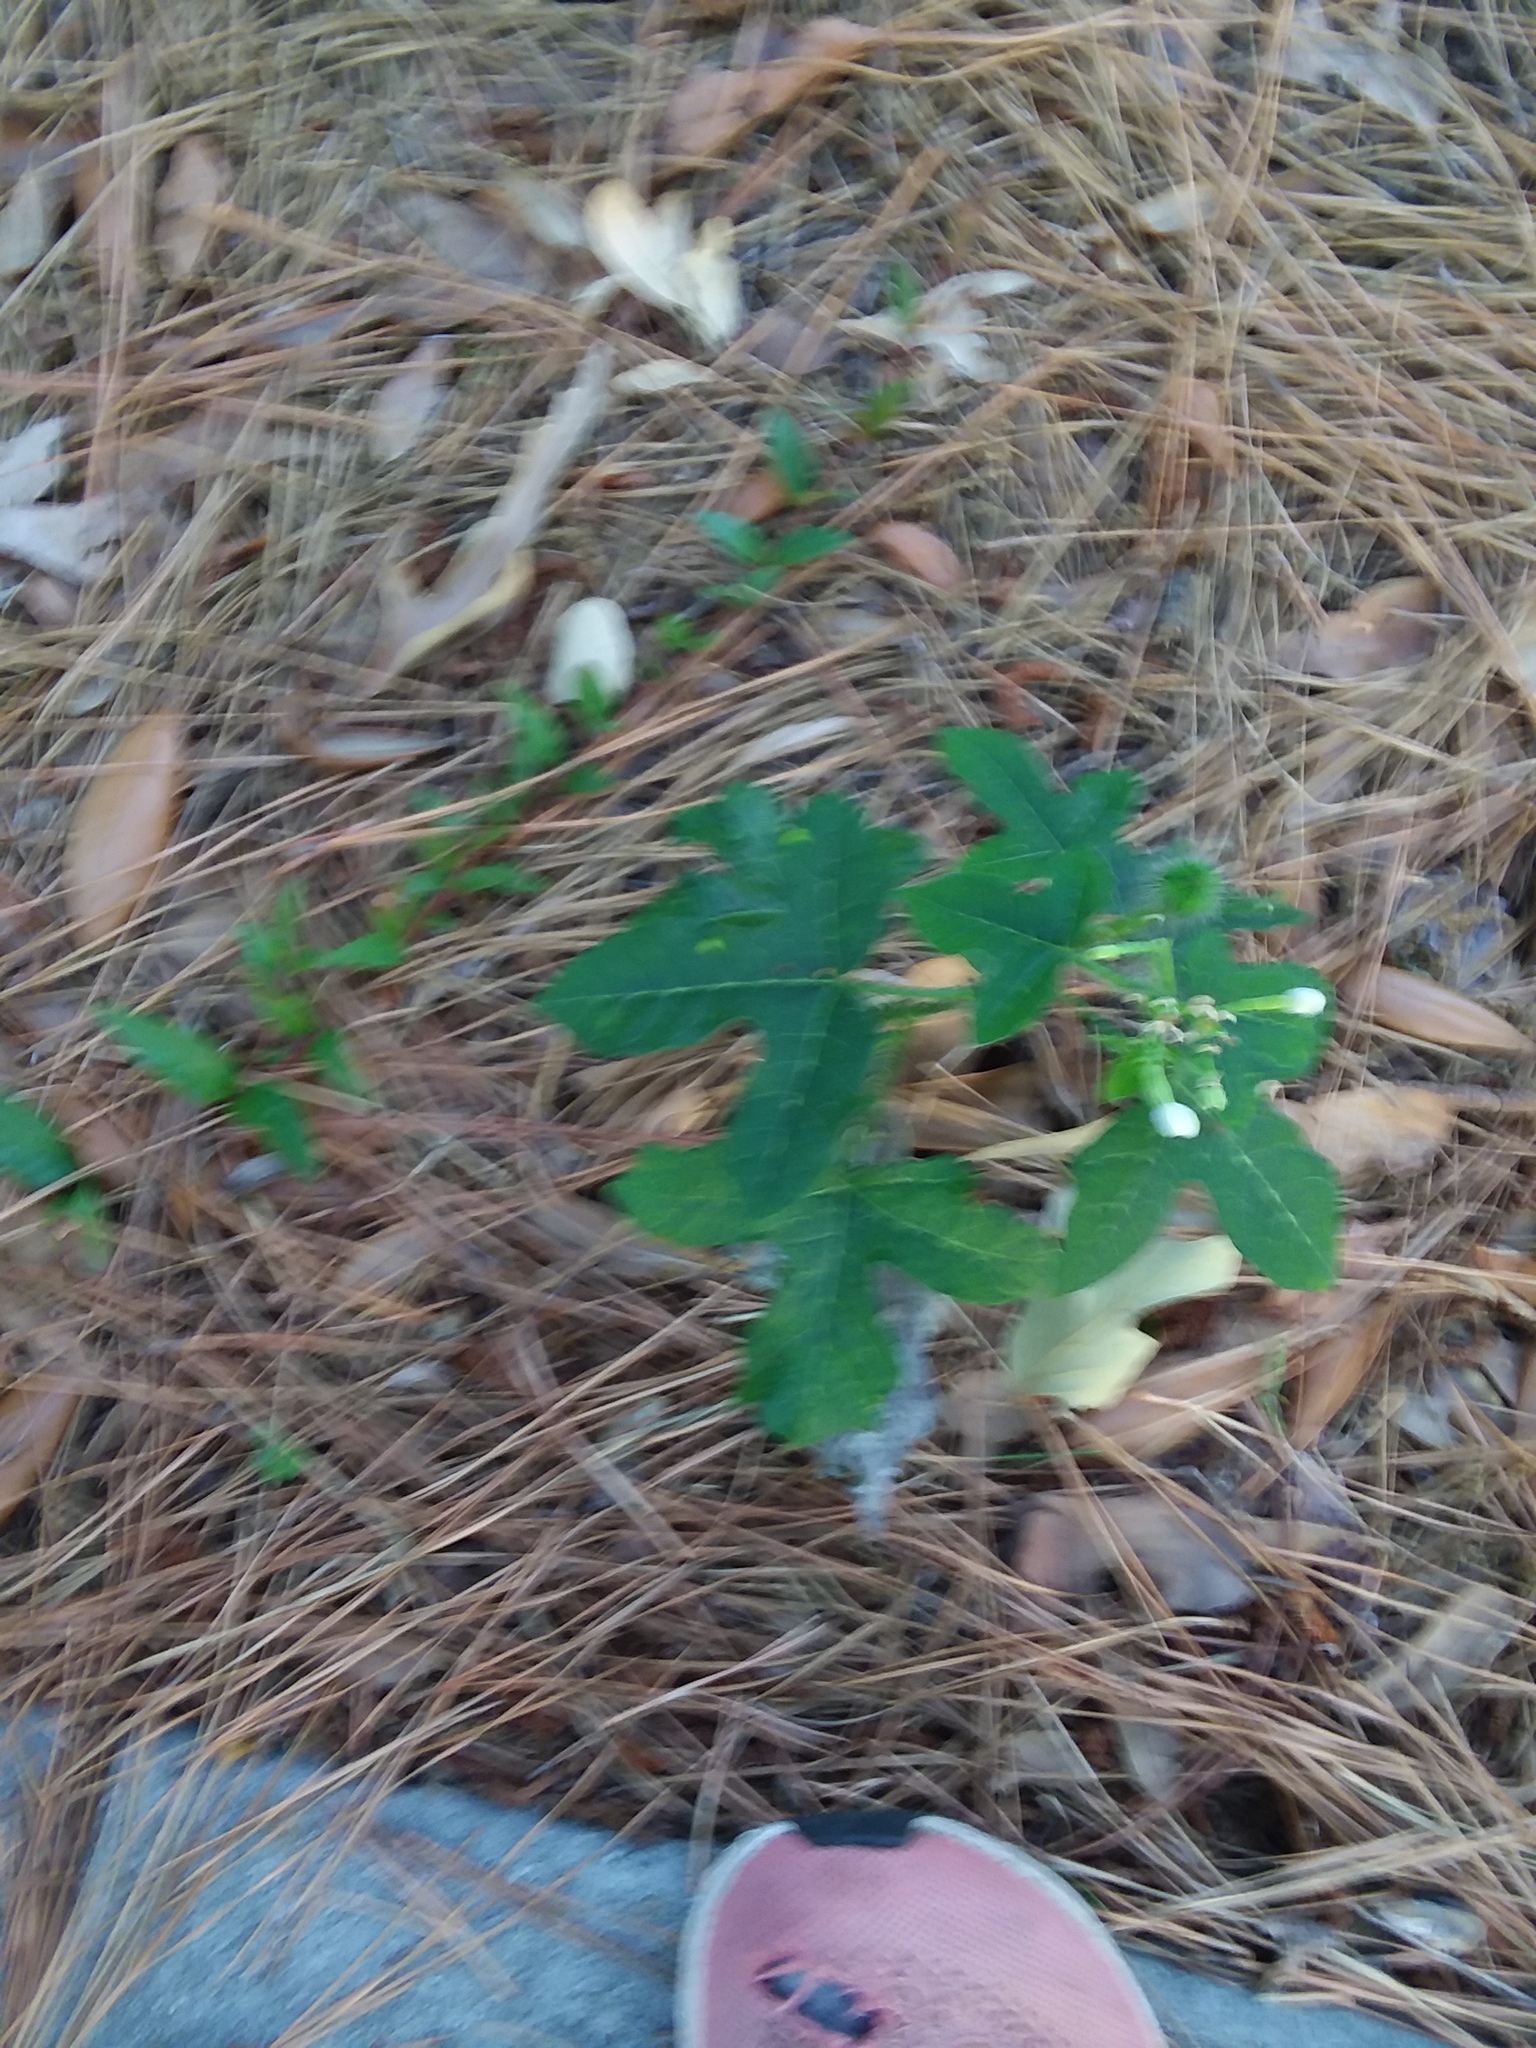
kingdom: Plantae
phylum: Tracheophyta
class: Magnoliopsida
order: Malpighiales
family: Euphorbiaceae
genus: Cnidoscolus
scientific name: Cnidoscolus stimulosus
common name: Bull-nettle
